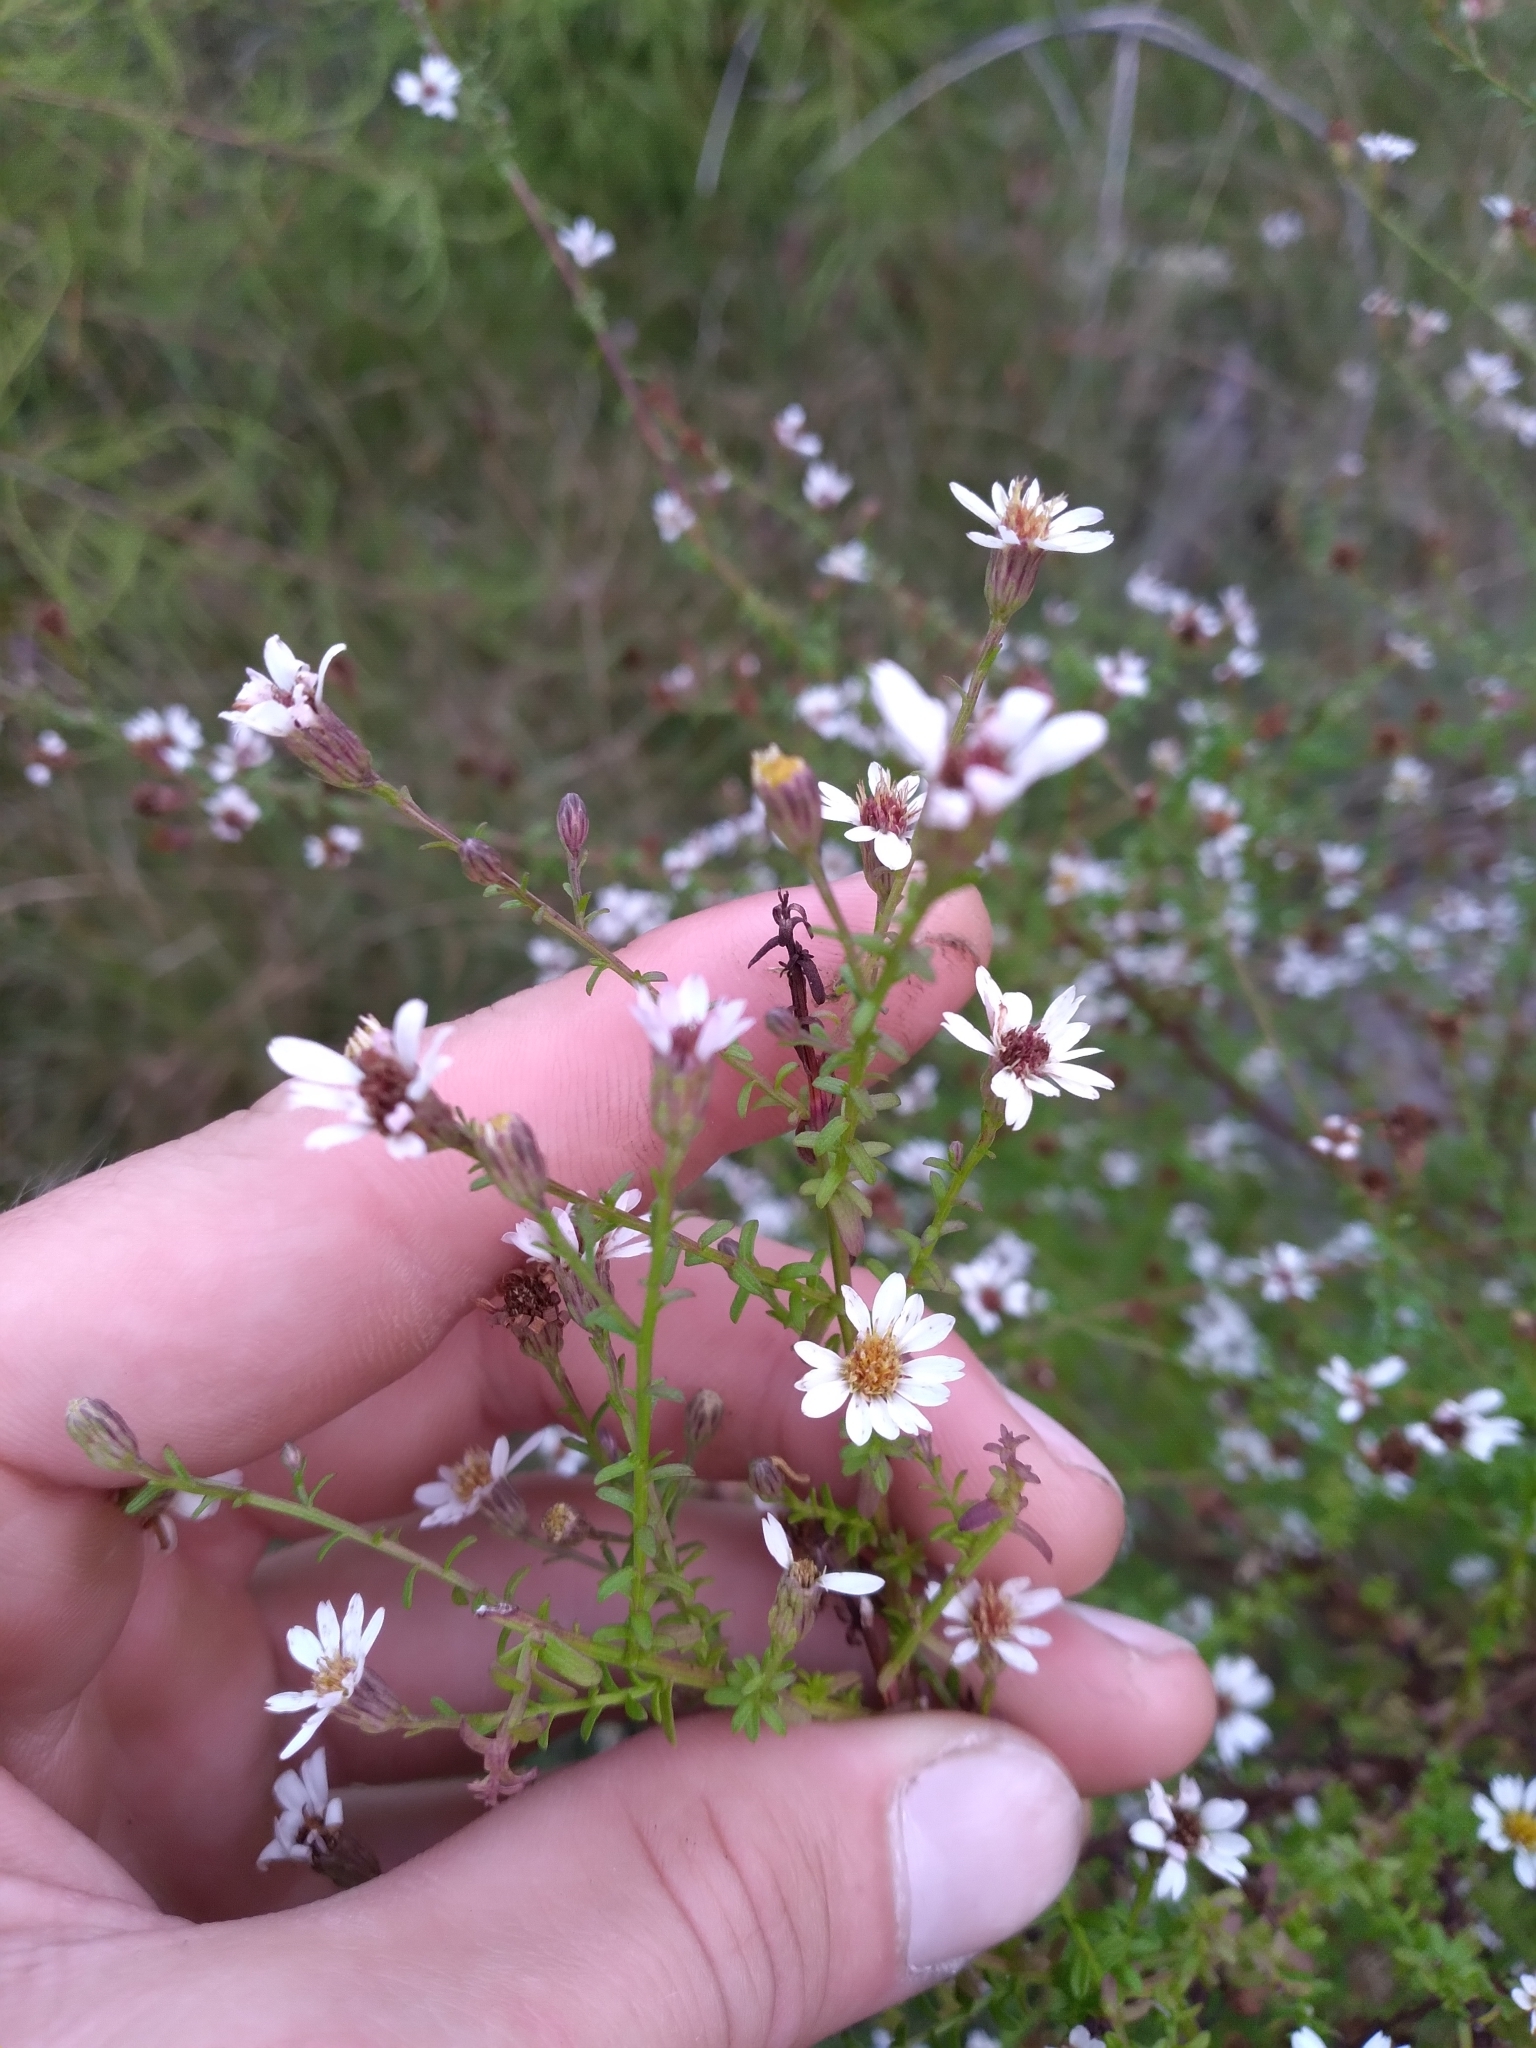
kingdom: Plantae
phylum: Tracheophyta
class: Magnoliopsida
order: Asterales
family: Asteraceae
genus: Symphyotrichum
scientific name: Symphyotrichum dumosum
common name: Bushy aster
